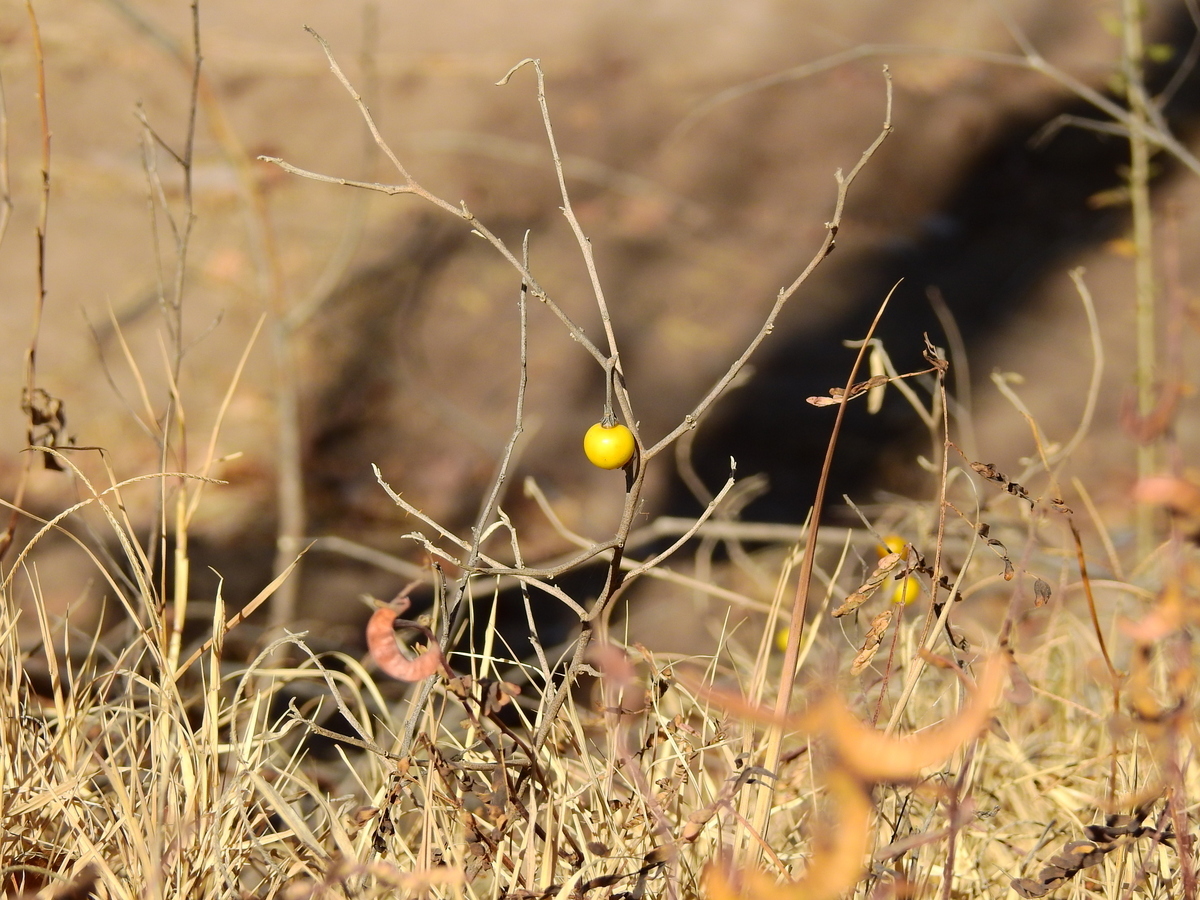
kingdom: Plantae
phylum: Tracheophyta
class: Magnoliopsida
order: Solanales
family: Solanaceae
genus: Solanum
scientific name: Solanum elaeagnifolium
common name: Silverleaf nightshade
